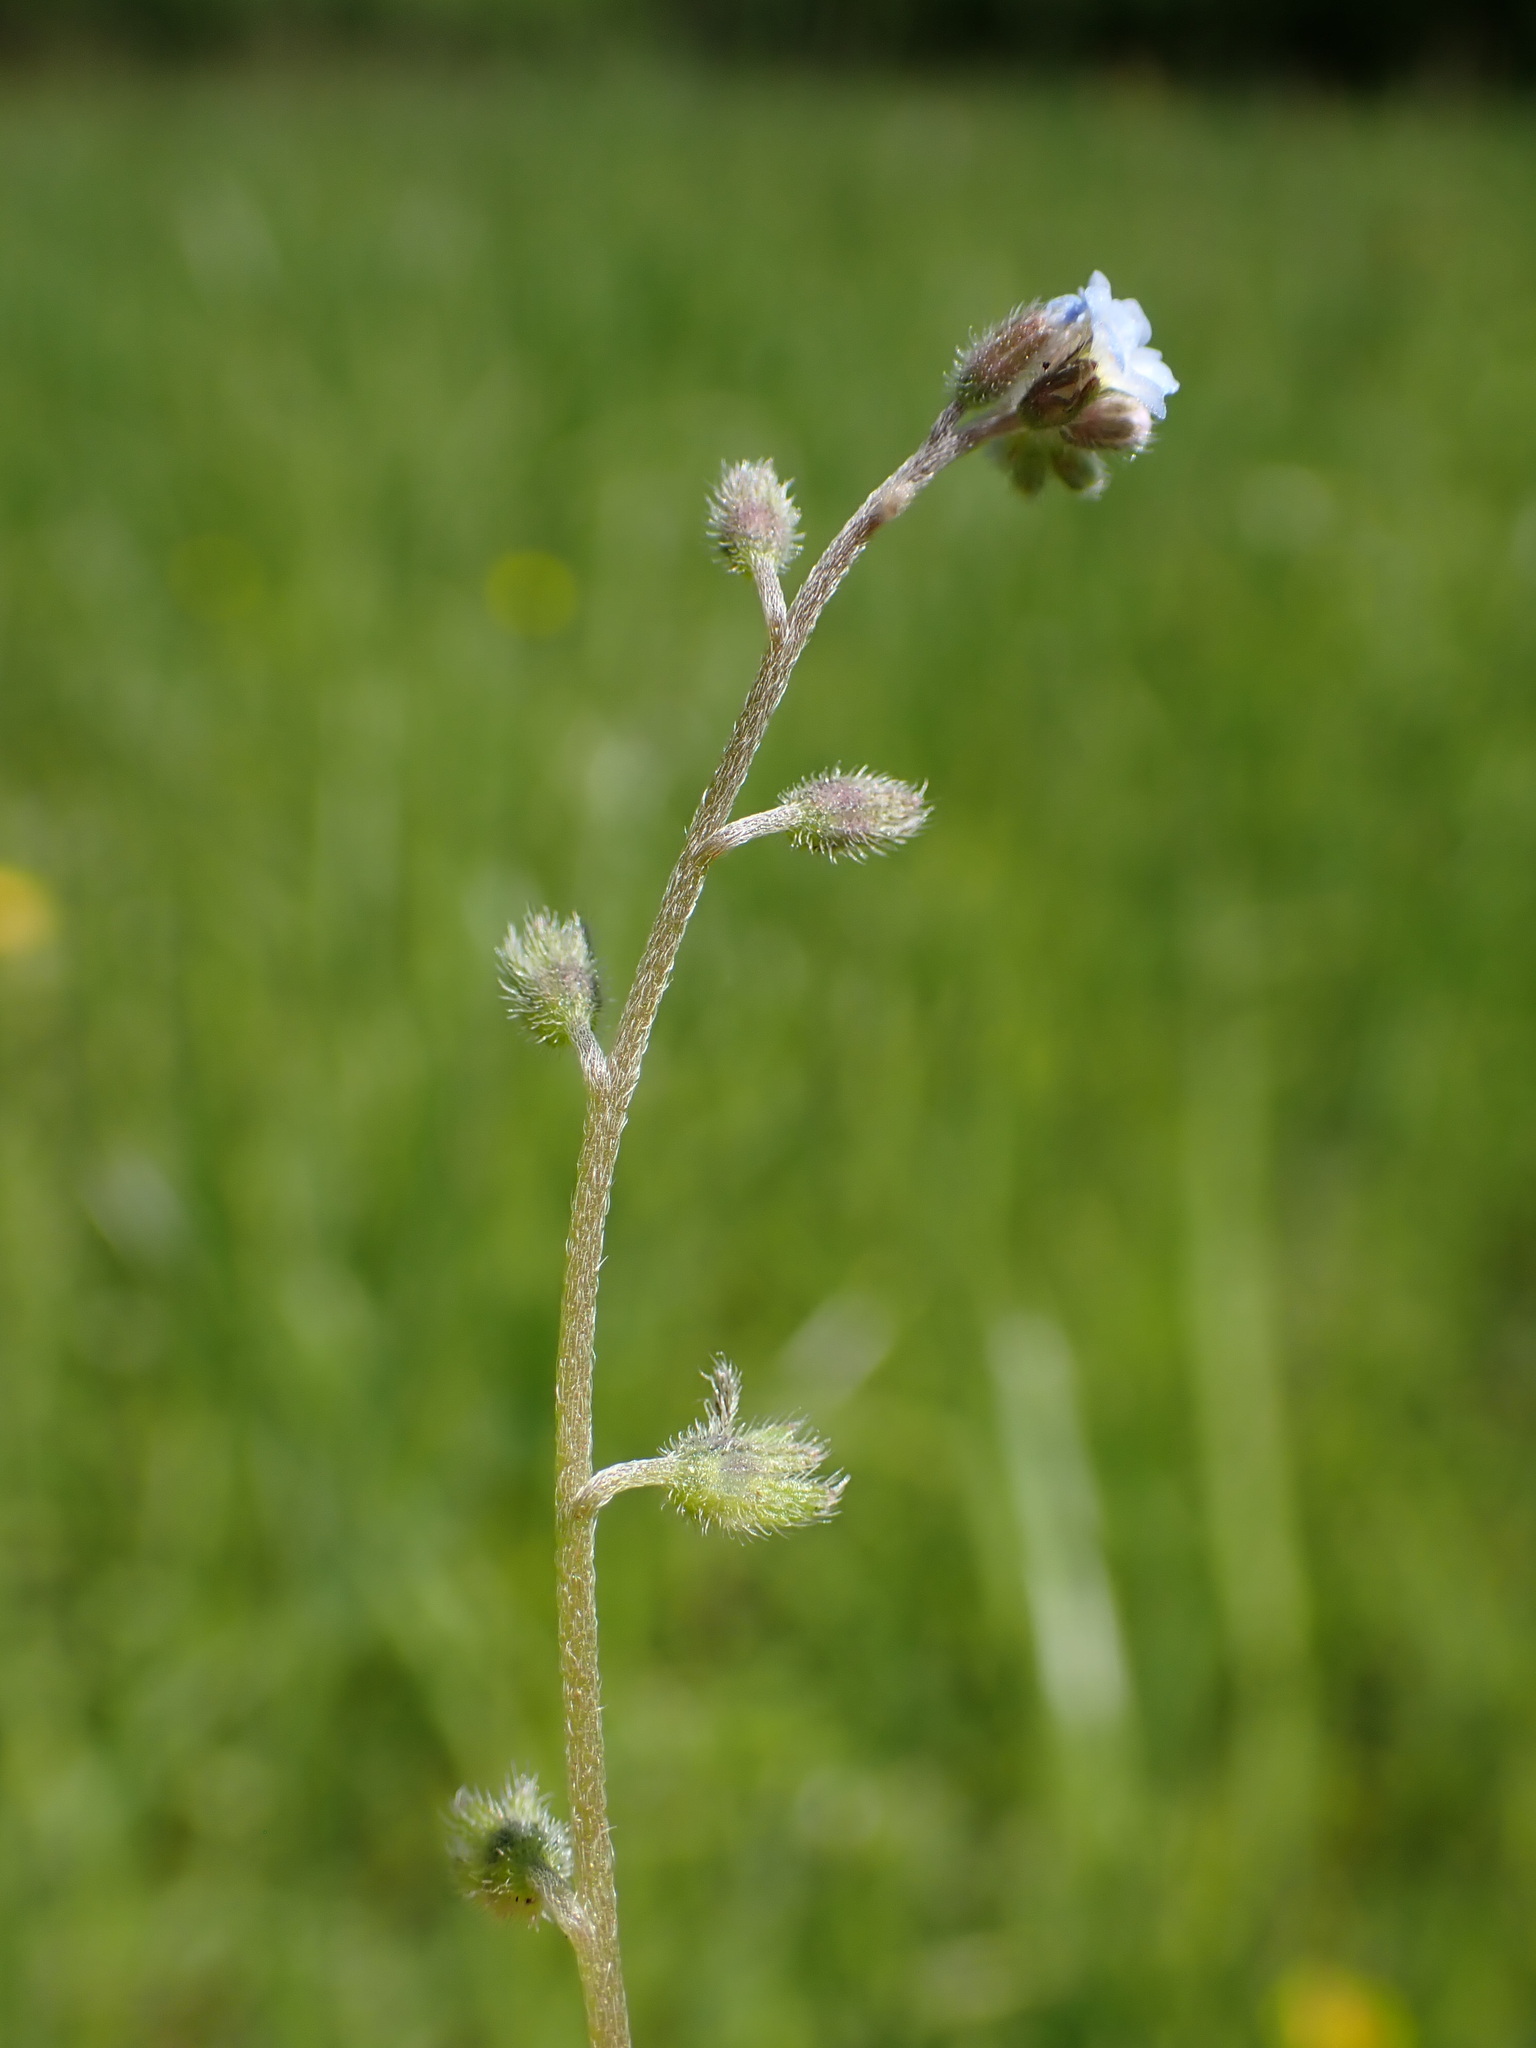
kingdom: Plantae
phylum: Tracheophyta
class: Magnoliopsida
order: Boraginales
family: Boraginaceae
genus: Myosotis
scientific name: Myosotis ramosissima
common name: Early forget-me-not
